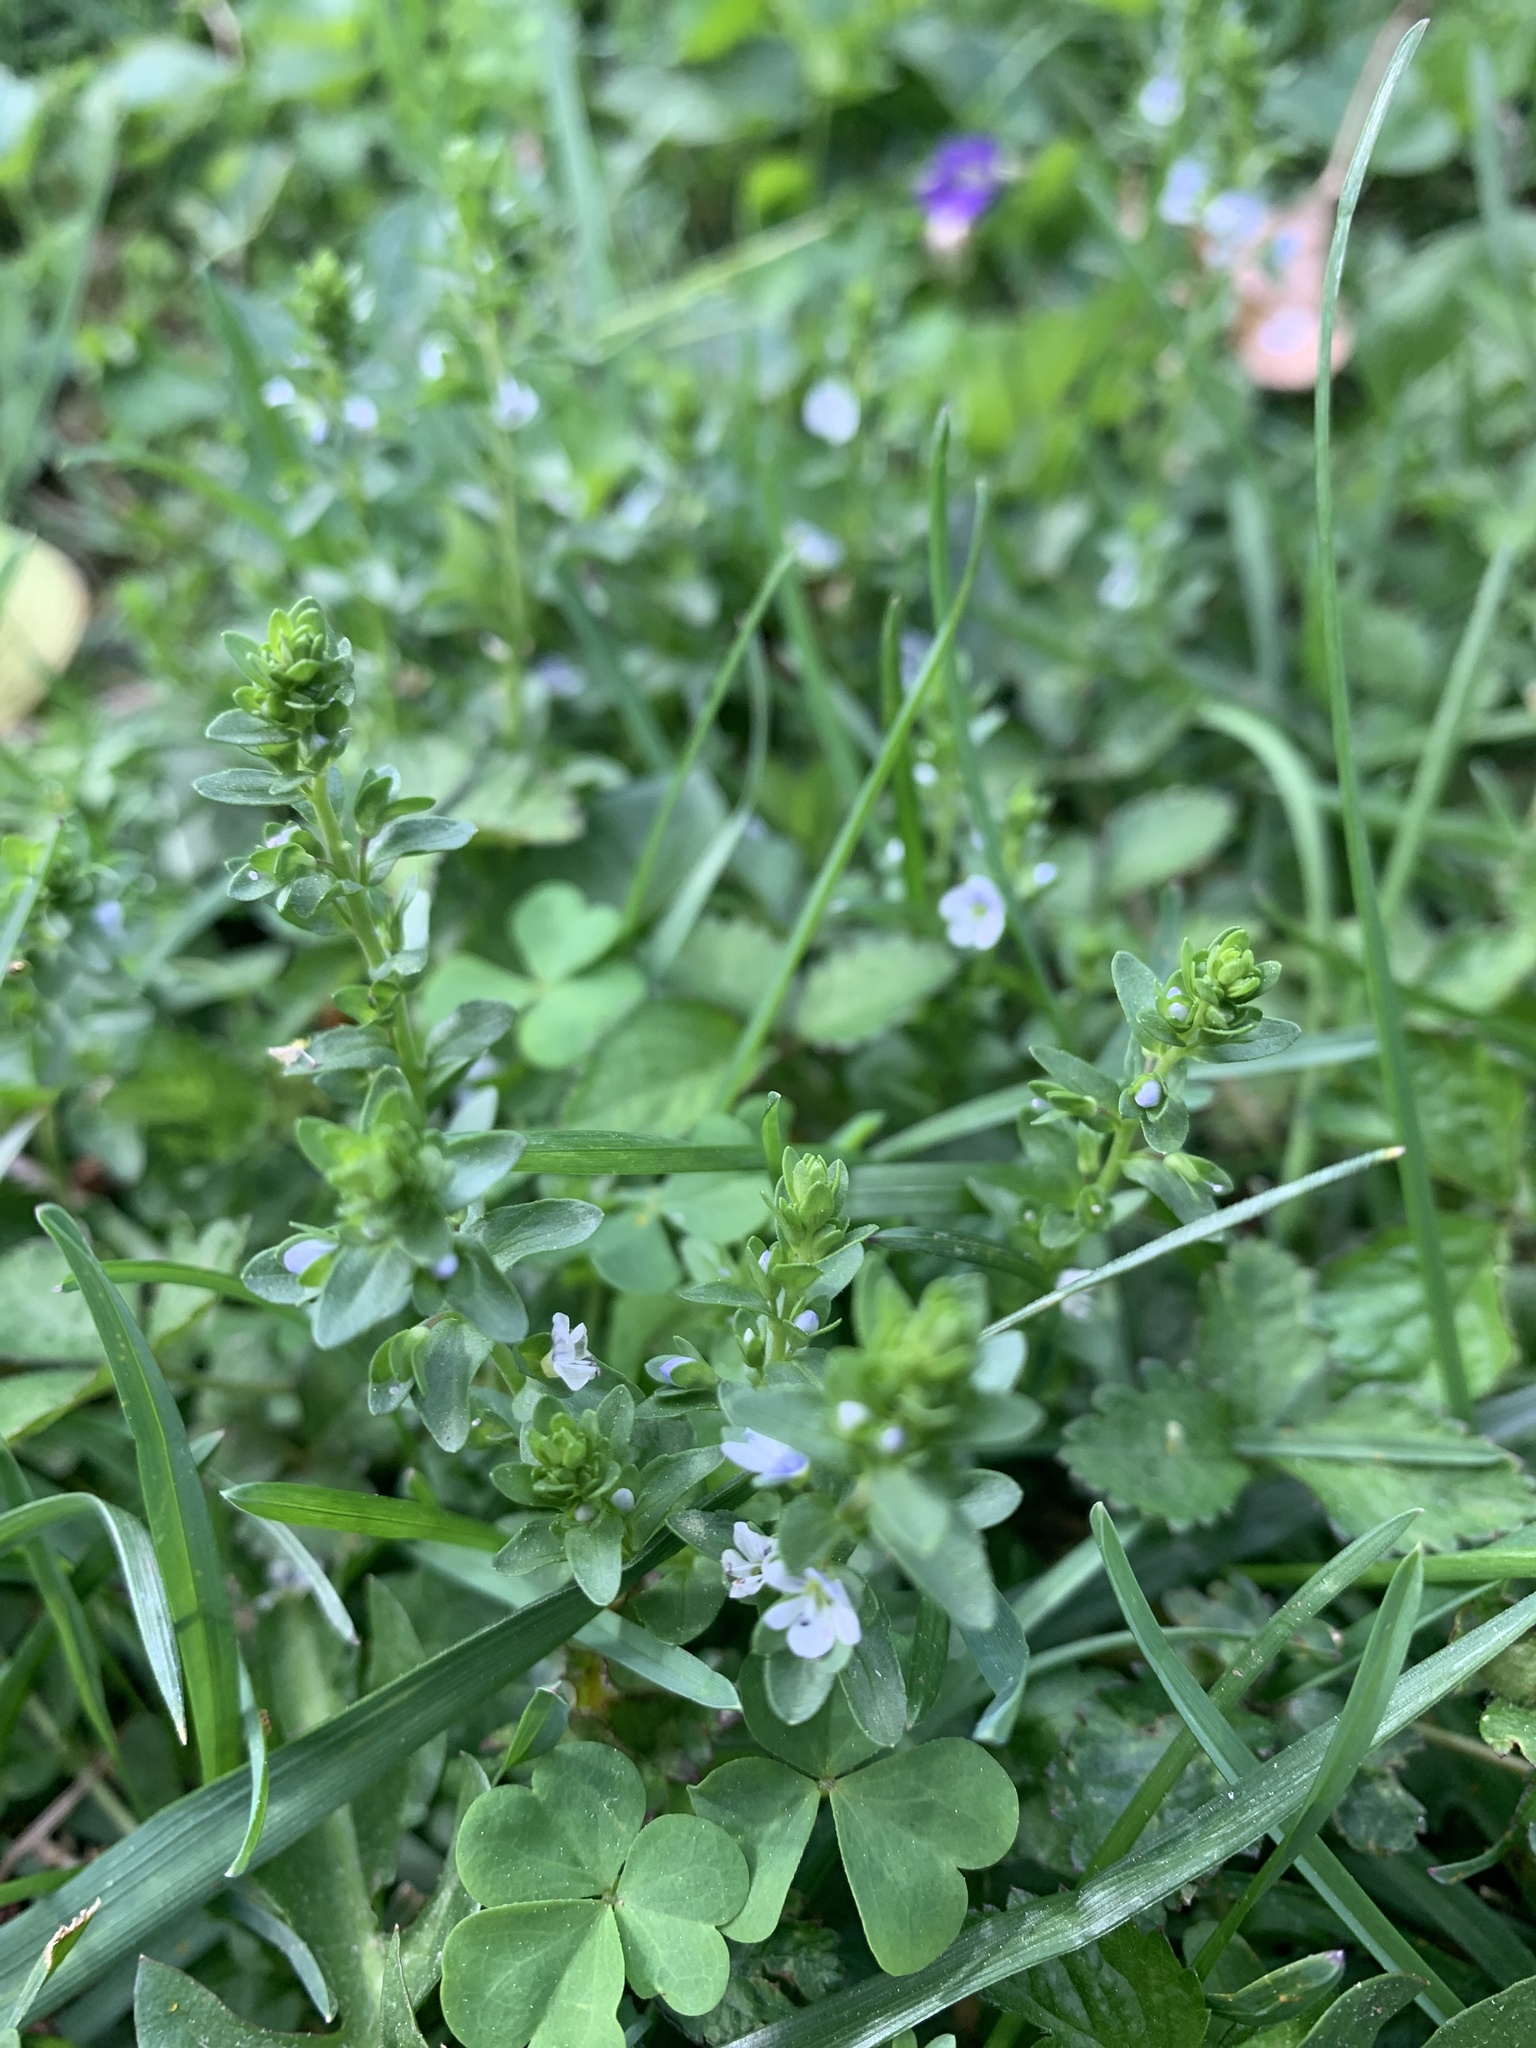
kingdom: Plantae
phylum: Tracheophyta
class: Magnoliopsida
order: Lamiales
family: Plantaginaceae
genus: Veronica
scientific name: Veronica serpyllifolia
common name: Thyme-leaved speedwell
